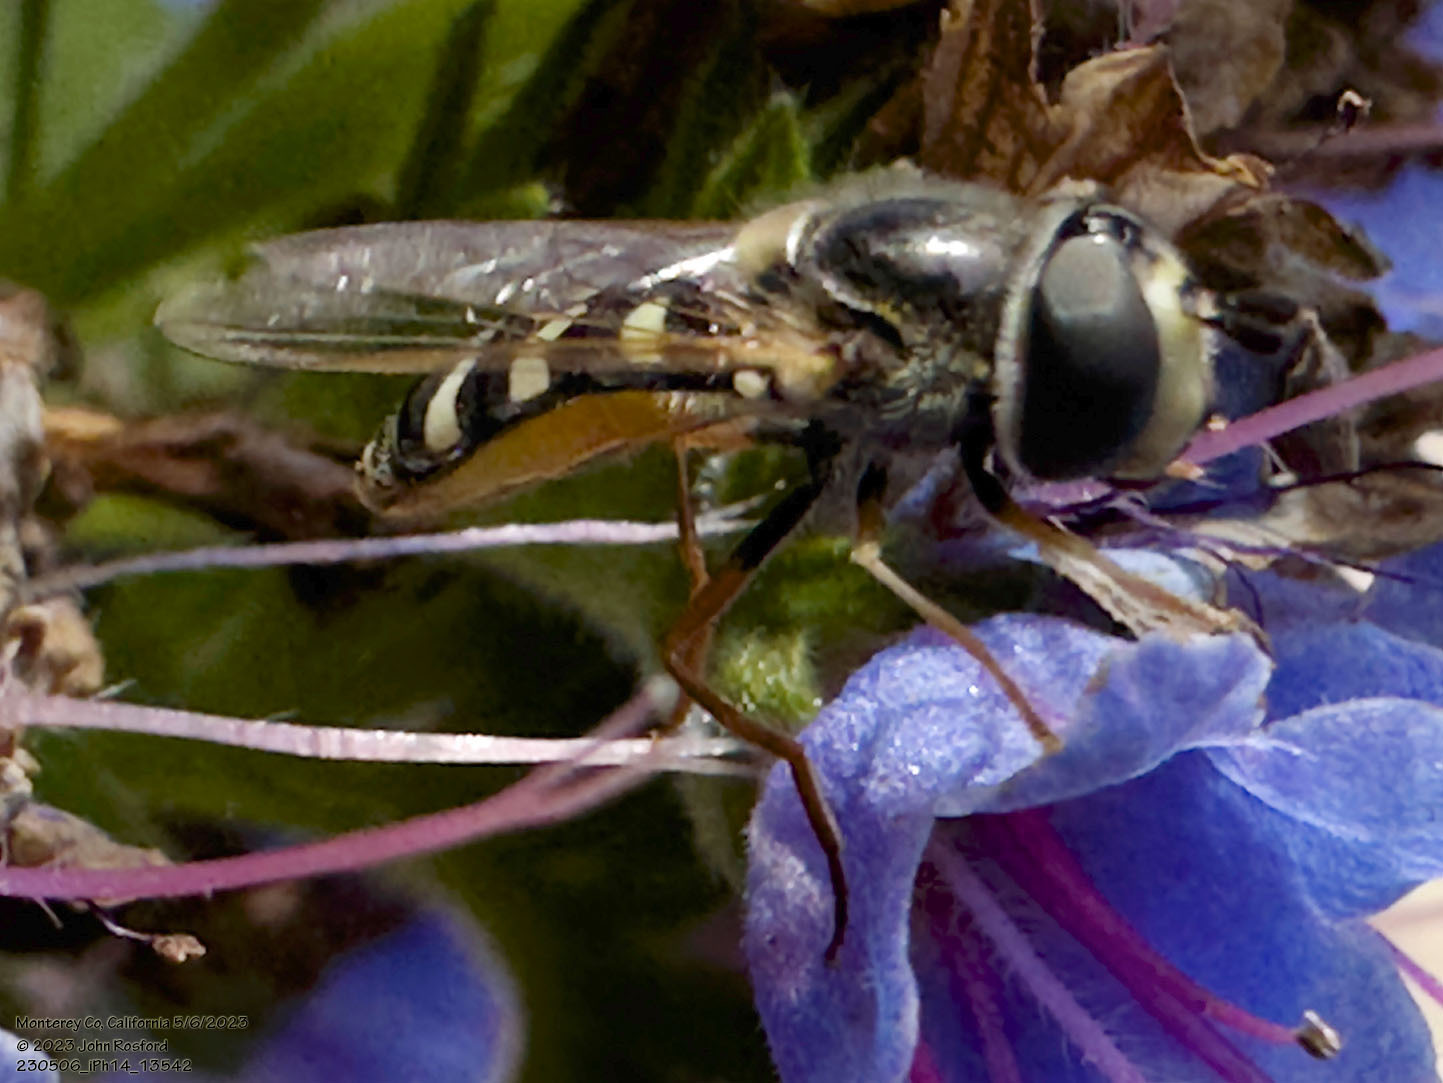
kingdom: Animalia
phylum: Arthropoda
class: Insecta
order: Diptera
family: Syrphidae
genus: Eupeodes
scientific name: Eupeodes volucris
